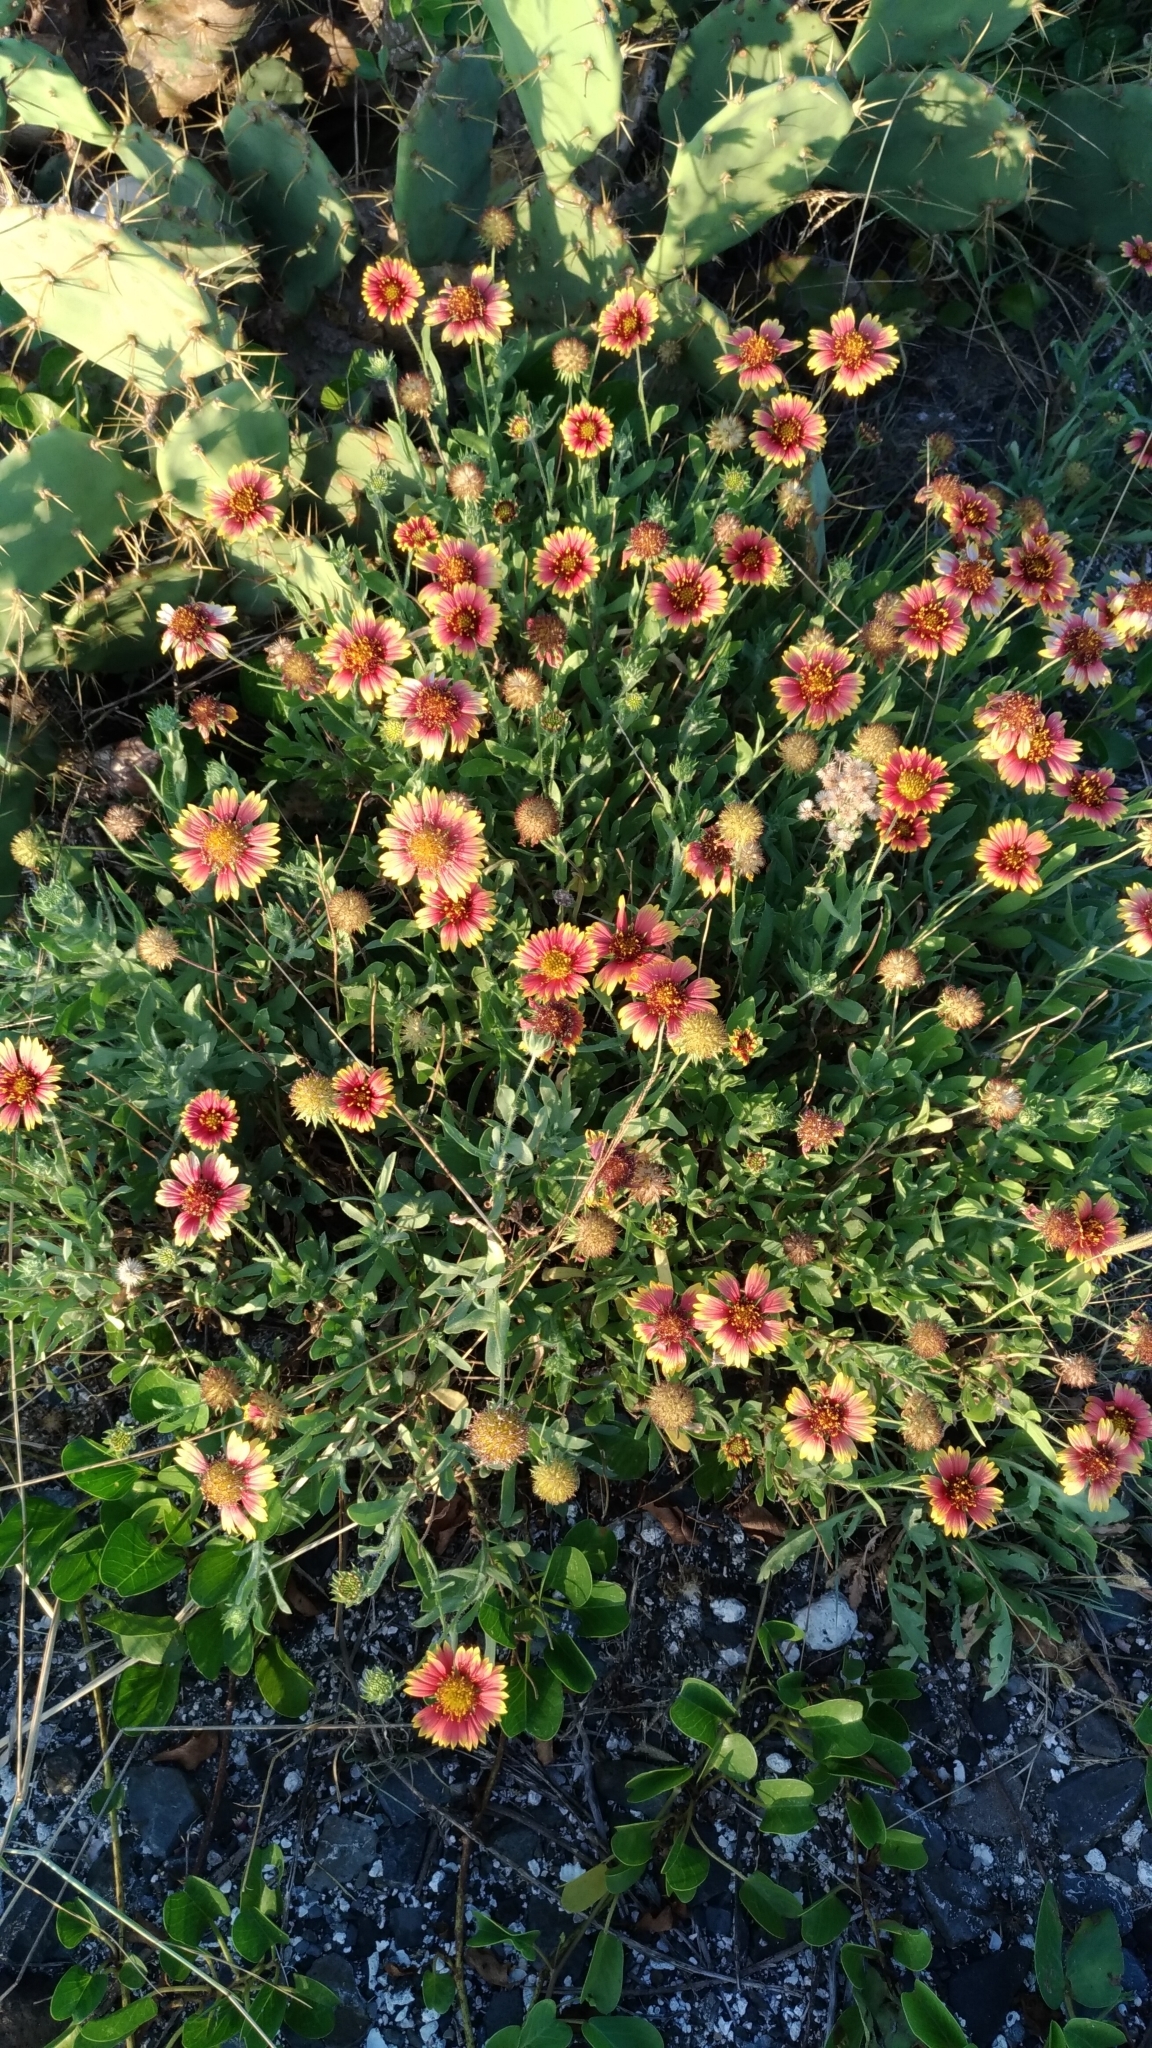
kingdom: Plantae
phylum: Tracheophyta
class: Magnoliopsida
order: Asterales
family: Asteraceae
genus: Gaillardia
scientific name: Gaillardia pulchella
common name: Firewheel
